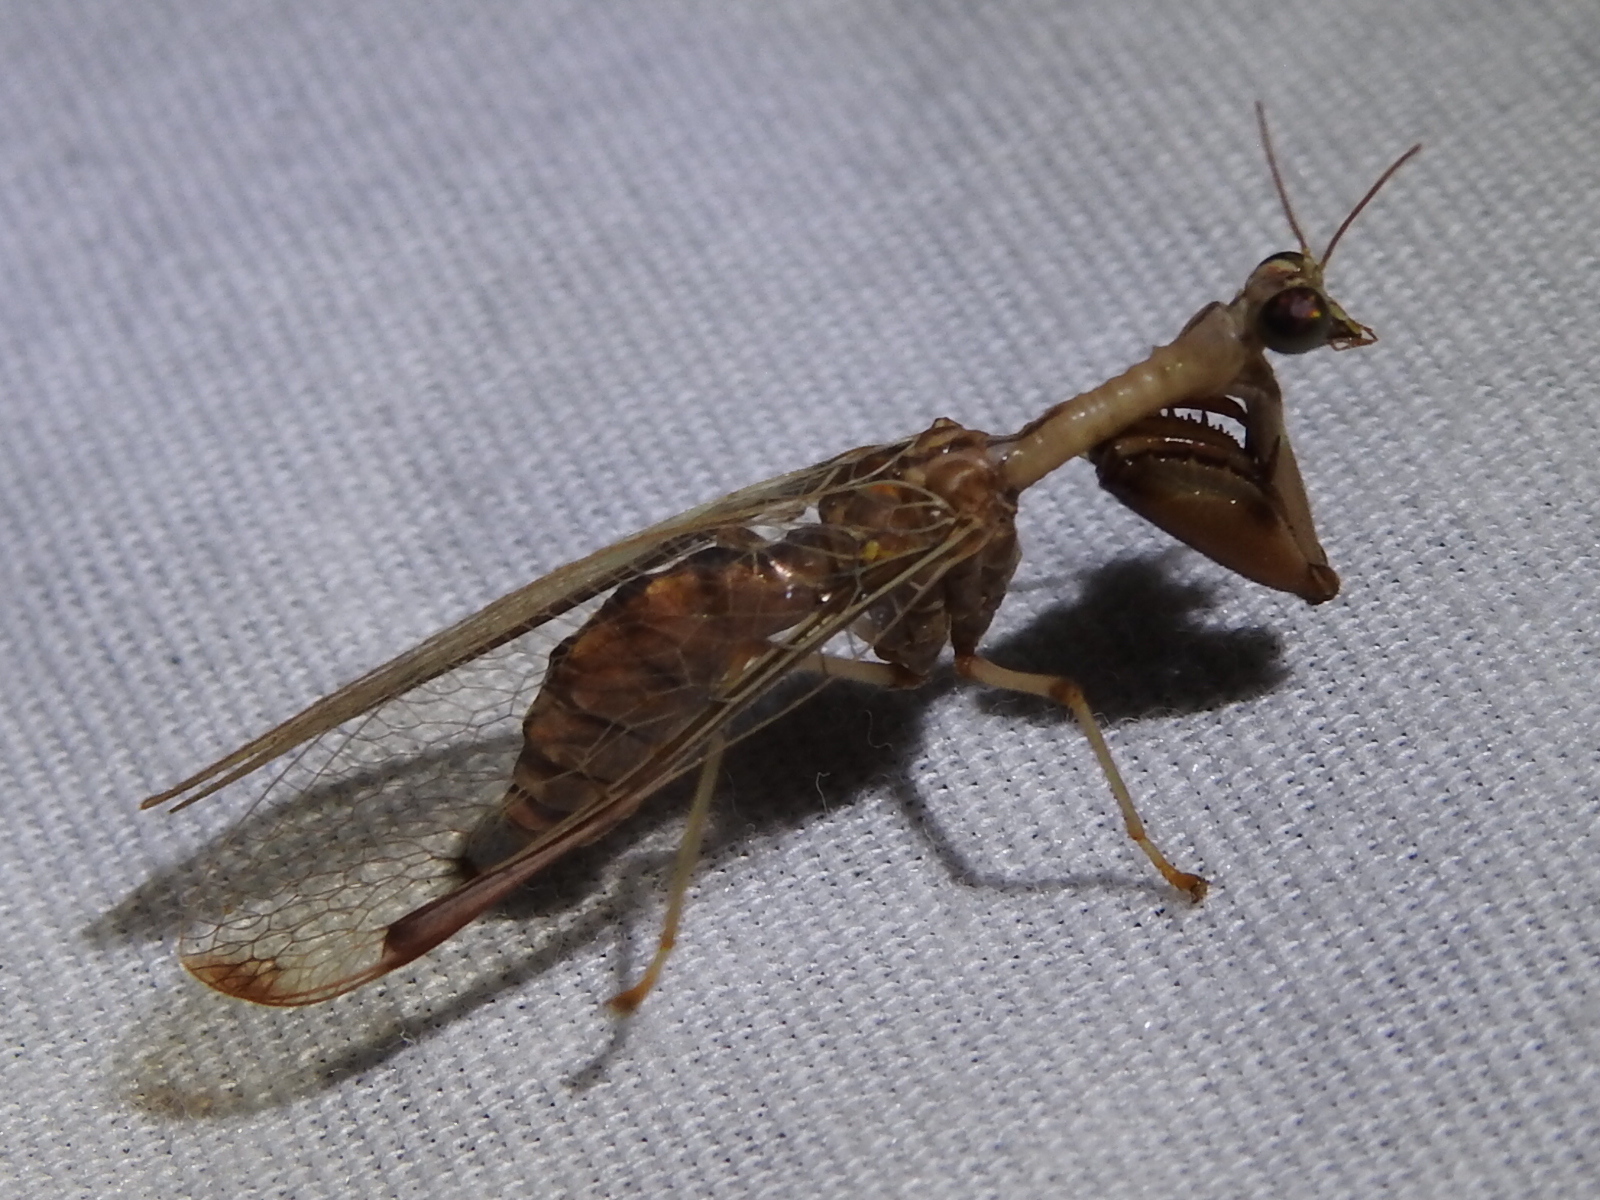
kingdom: Animalia
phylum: Arthropoda
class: Insecta
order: Neuroptera
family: Mantispidae
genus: Dicromantispa
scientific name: Dicromantispa interrupta
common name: Four-spotted mantidfly
